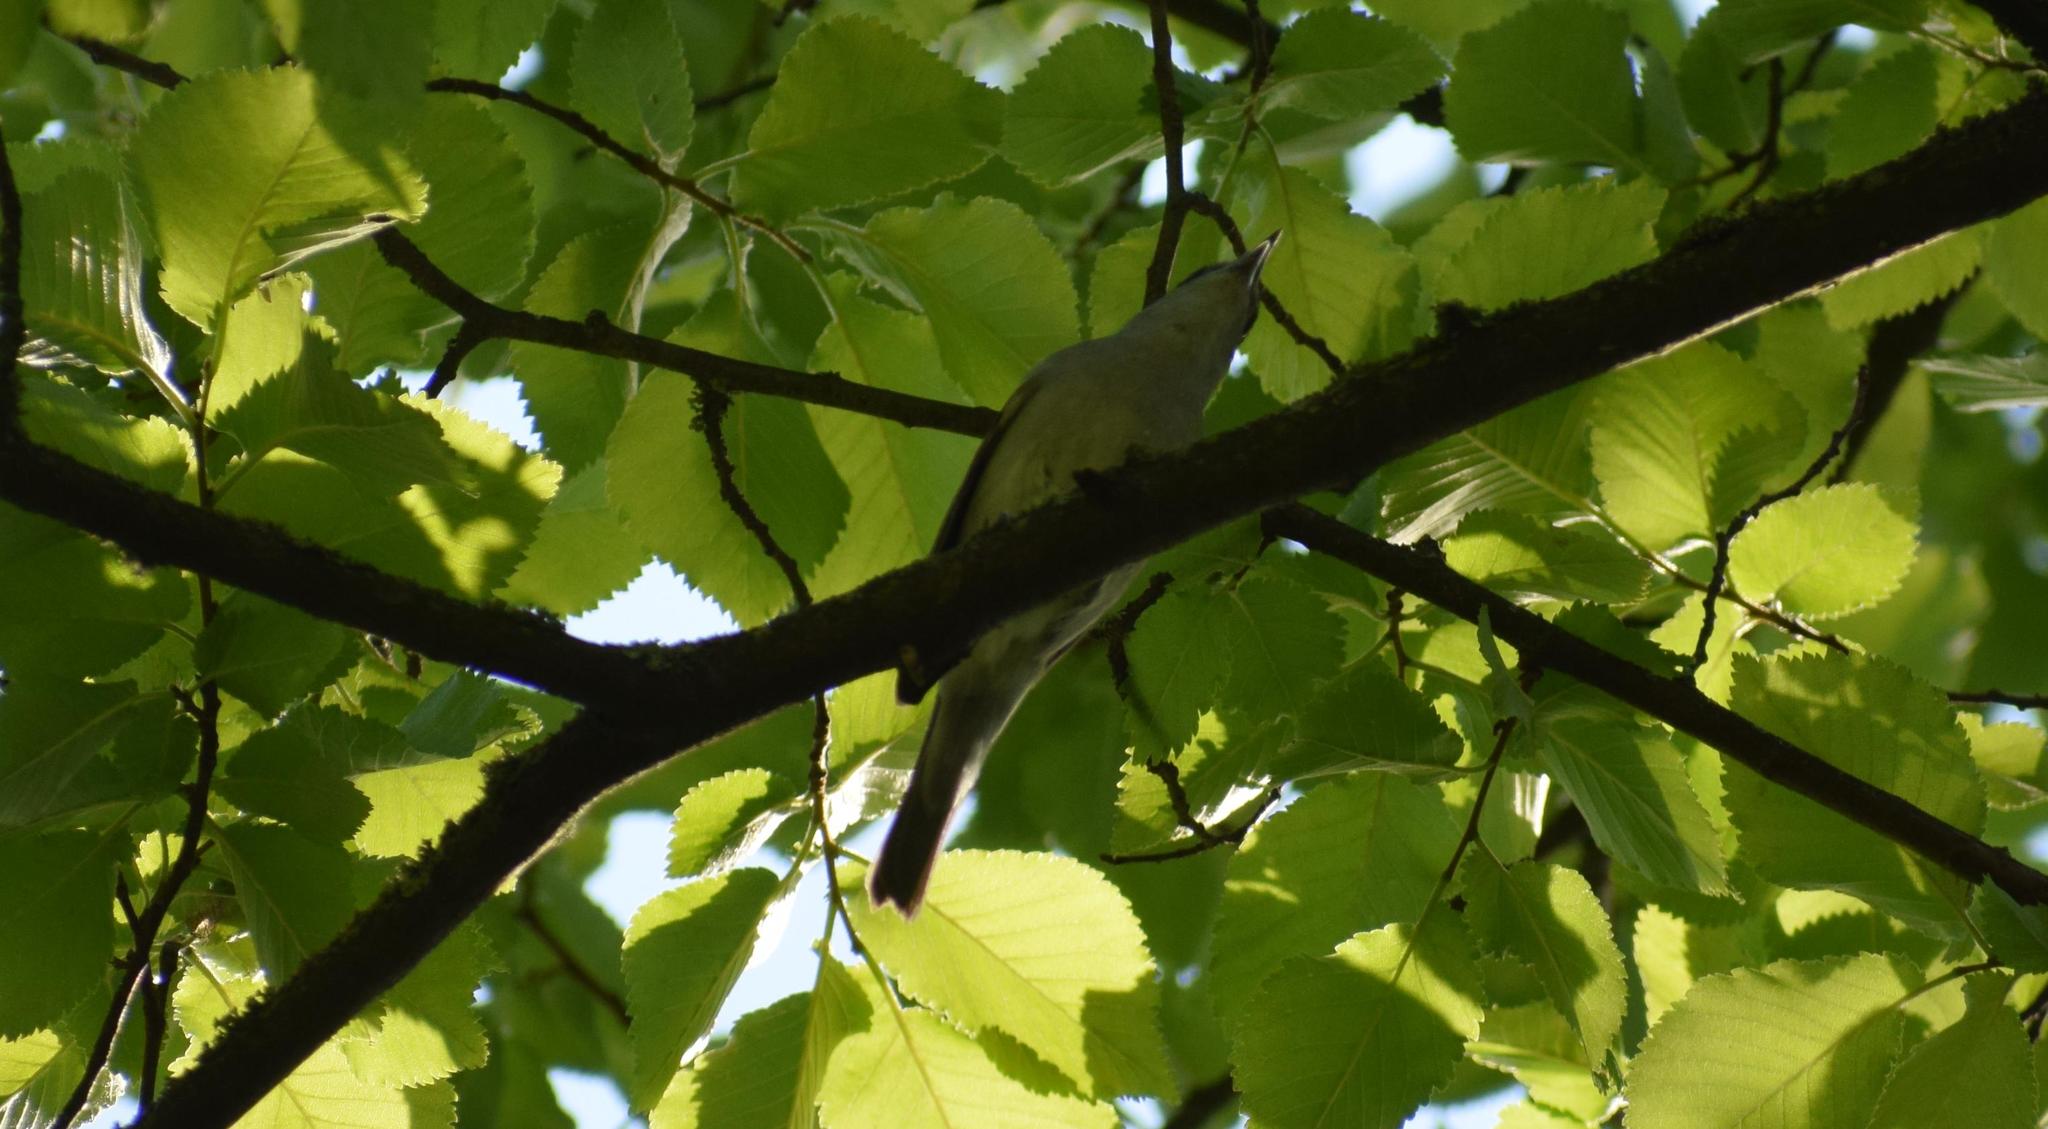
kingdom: Animalia
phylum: Chordata
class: Aves
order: Passeriformes
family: Sylviidae
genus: Sylvia
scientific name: Sylvia atricapilla
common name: Eurasian blackcap
